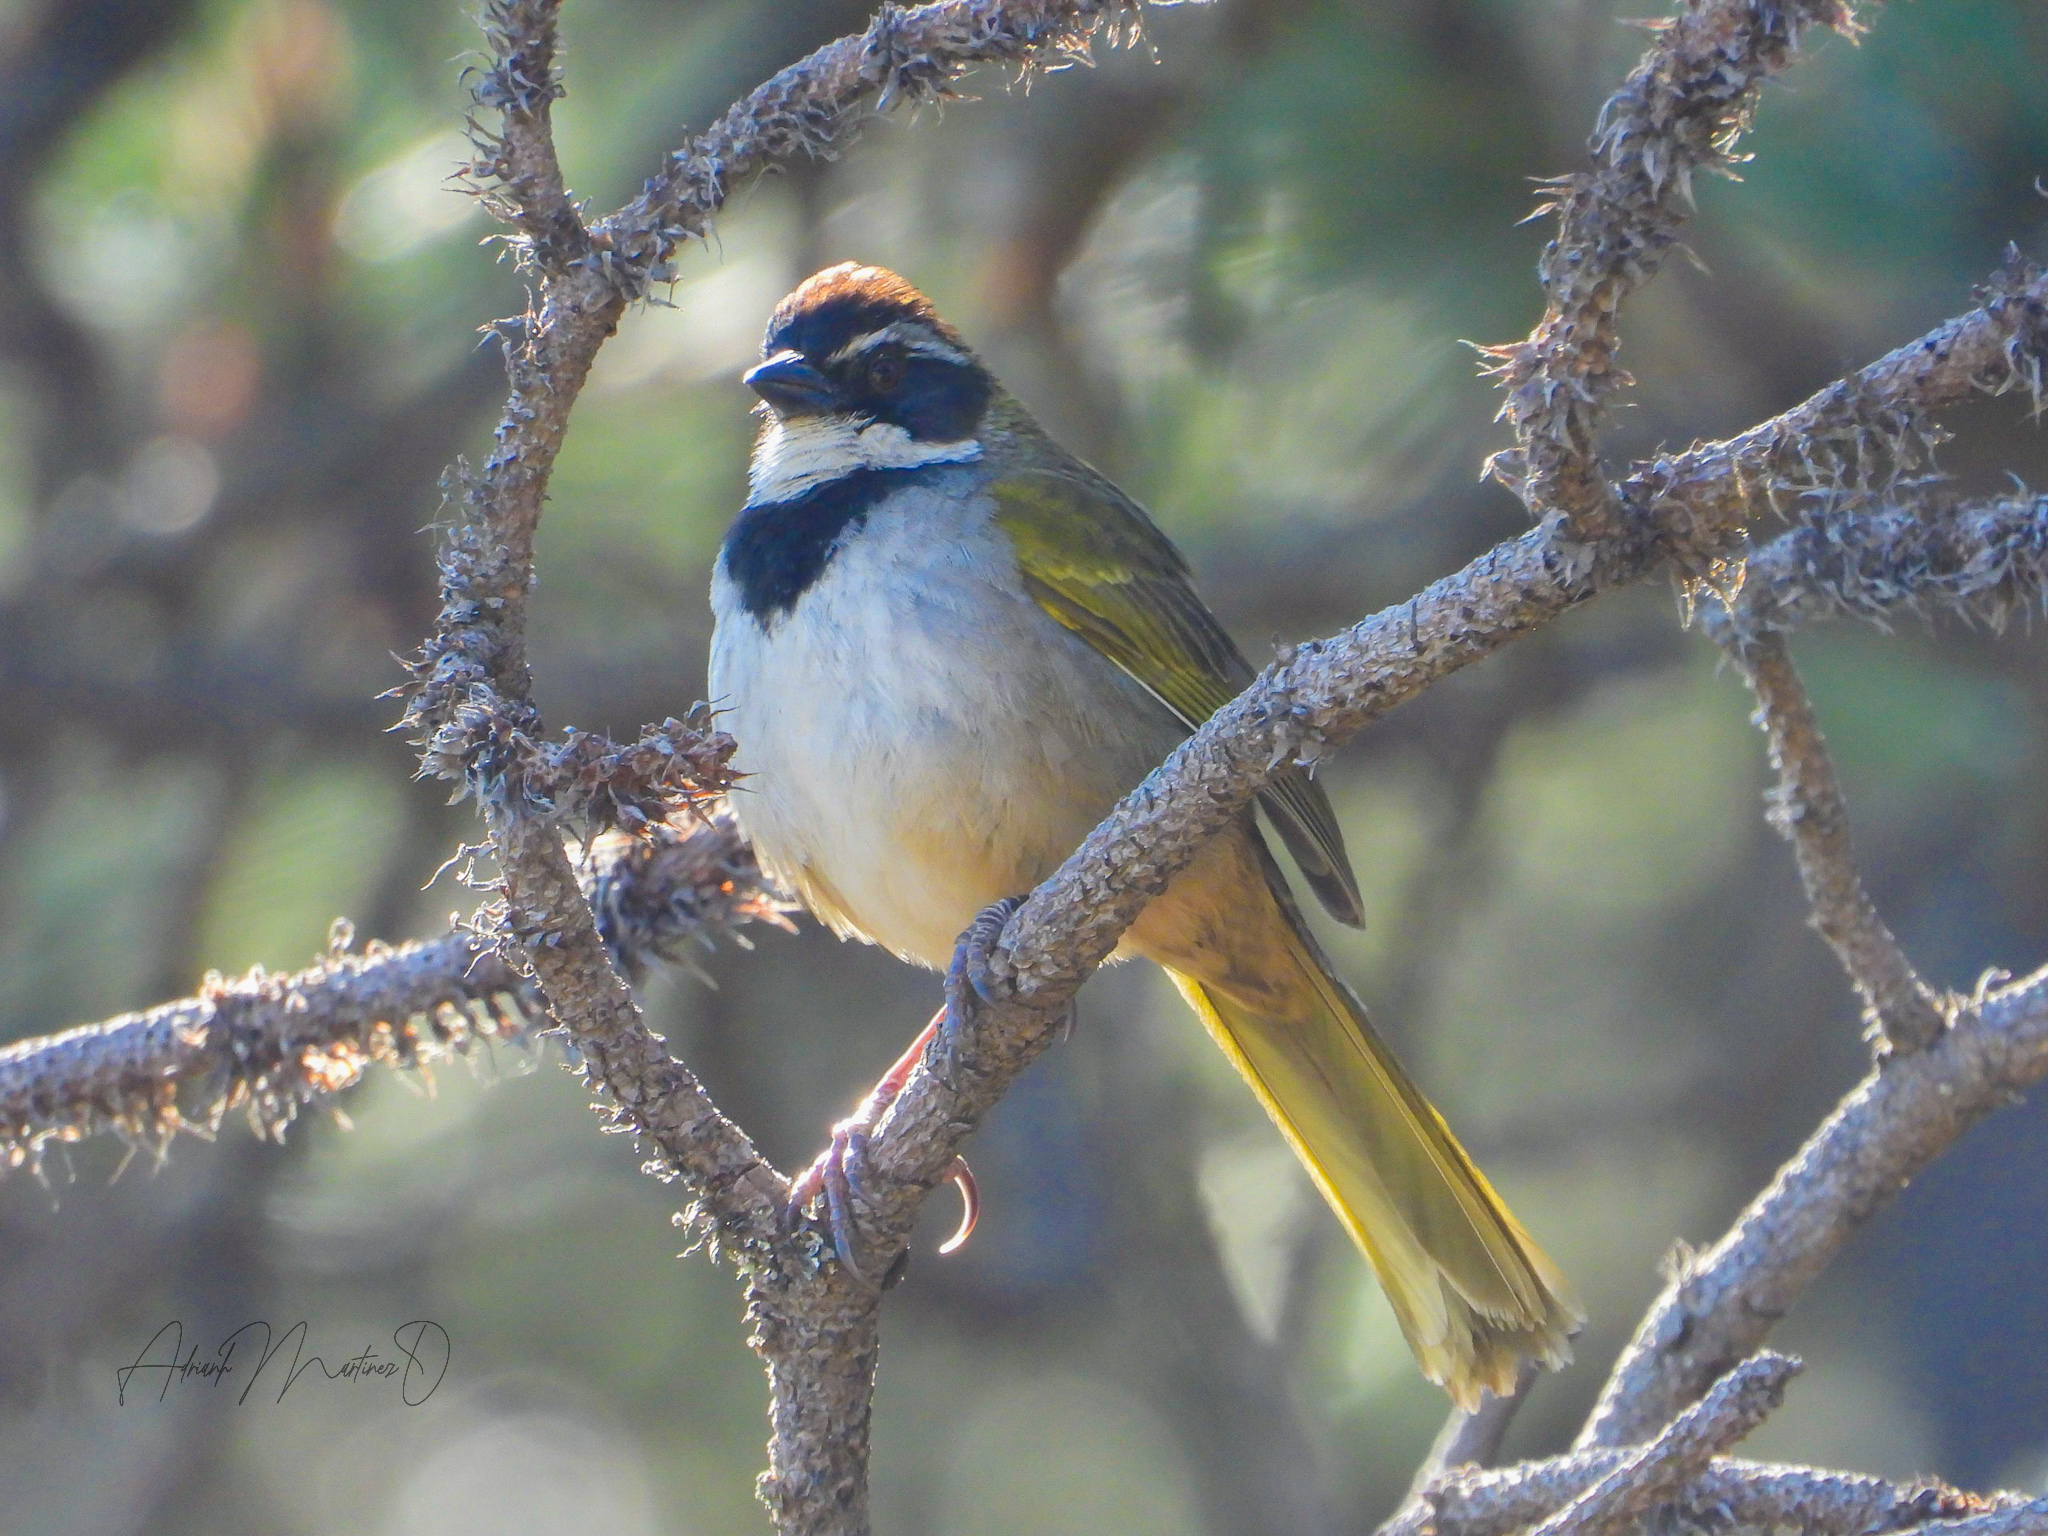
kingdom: Animalia
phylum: Chordata
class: Aves
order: Passeriformes
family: Passerellidae
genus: Pipilo
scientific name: Pipilo ocai
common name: Collared towhee
